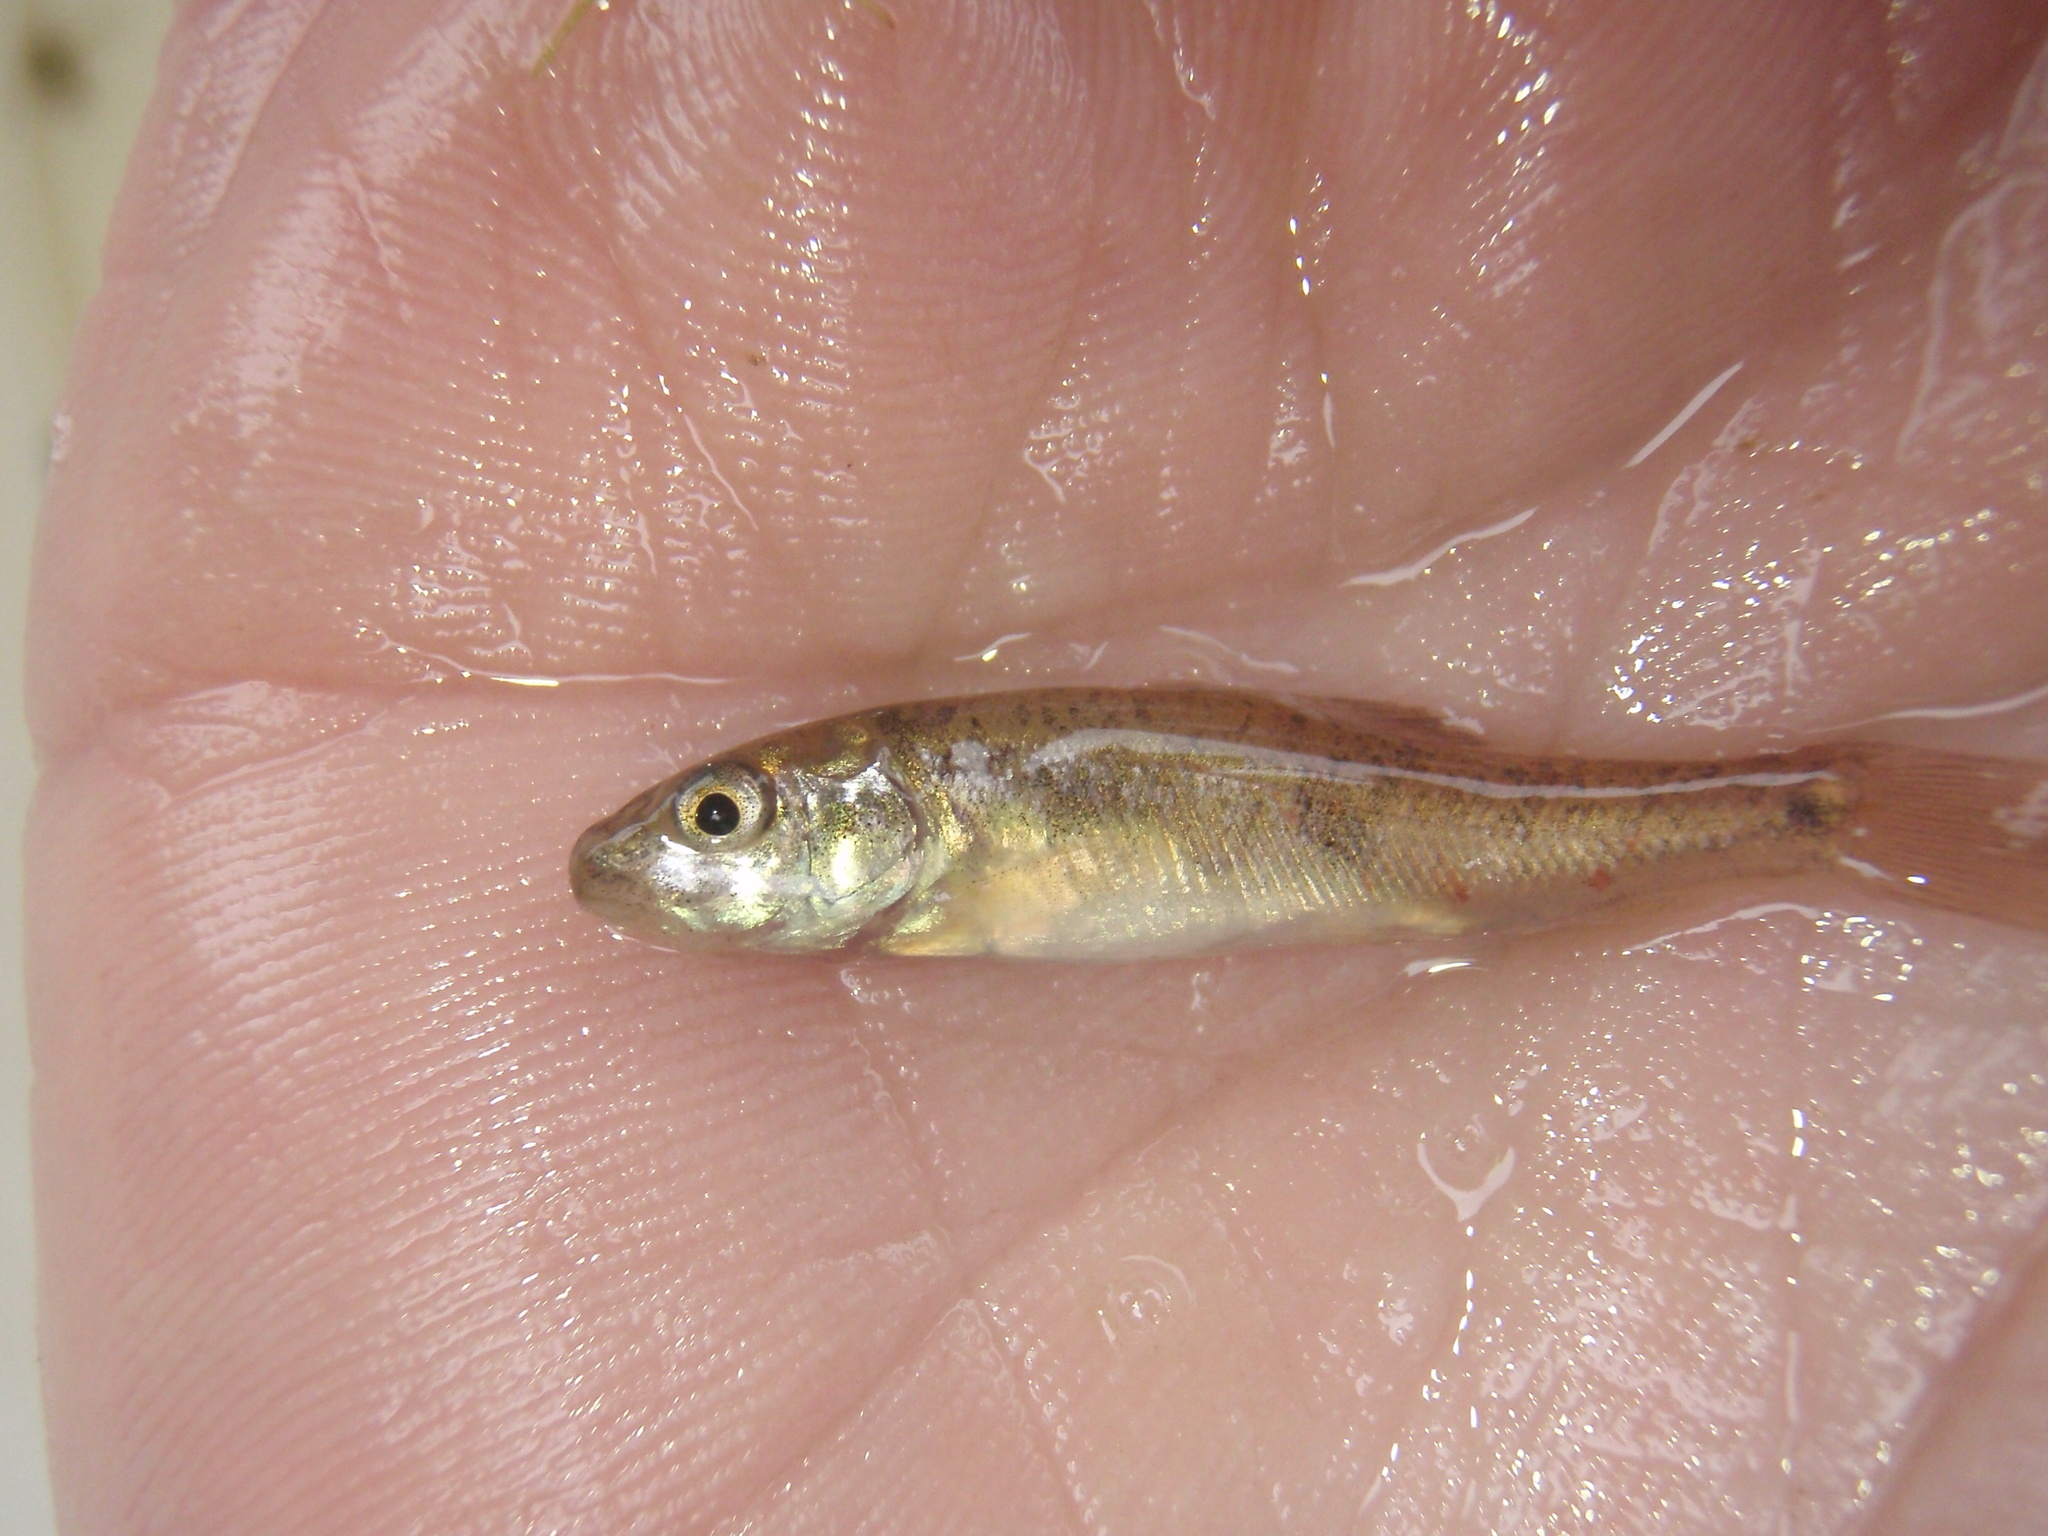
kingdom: Animalia
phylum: Chordata
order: Cypriniformes
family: Catostomidae
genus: Catostomus
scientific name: Catostomus commersonii
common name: White sucker
